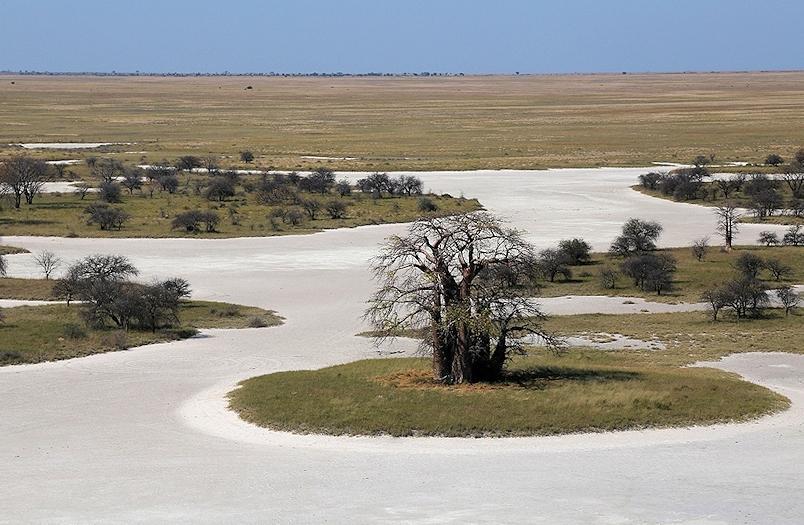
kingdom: Plantae
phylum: Tracheophyta
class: Magnoliopsida
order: Malvales
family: Malvaceae
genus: Adansonia
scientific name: Adansonia digitata
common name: Dead-rat-tree
